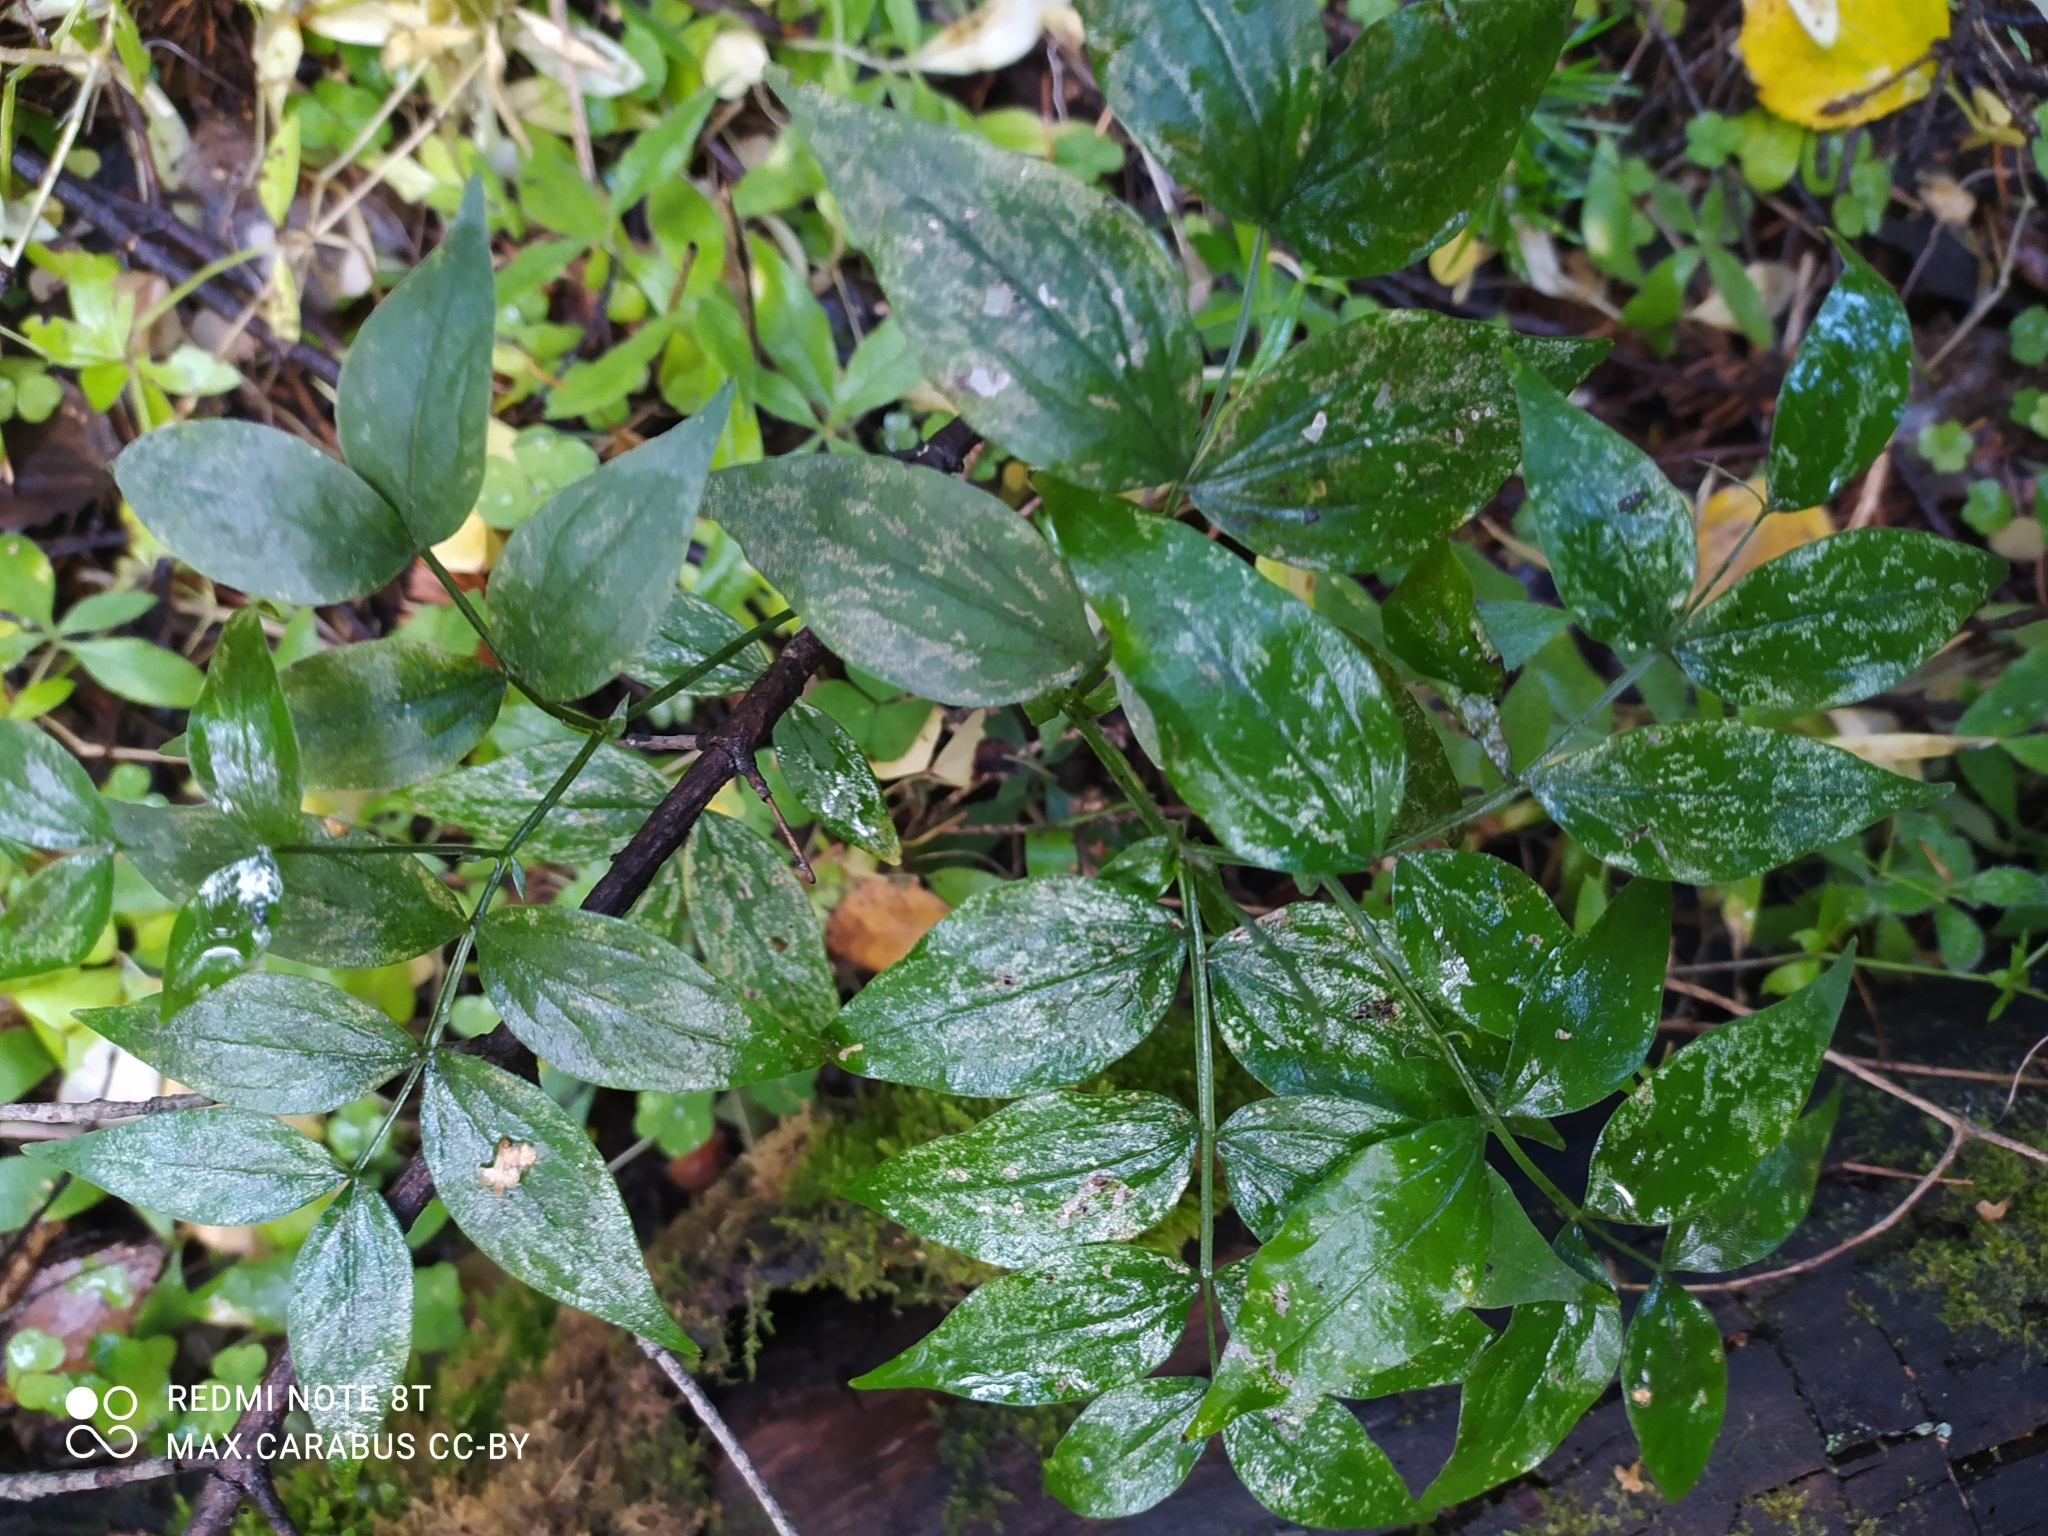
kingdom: Plantae
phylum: Tracheophyta
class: Magnoliopsida
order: Fabales
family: Fabaceae
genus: Lathyrus
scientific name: Lathyrus vernus
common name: Spring pea
